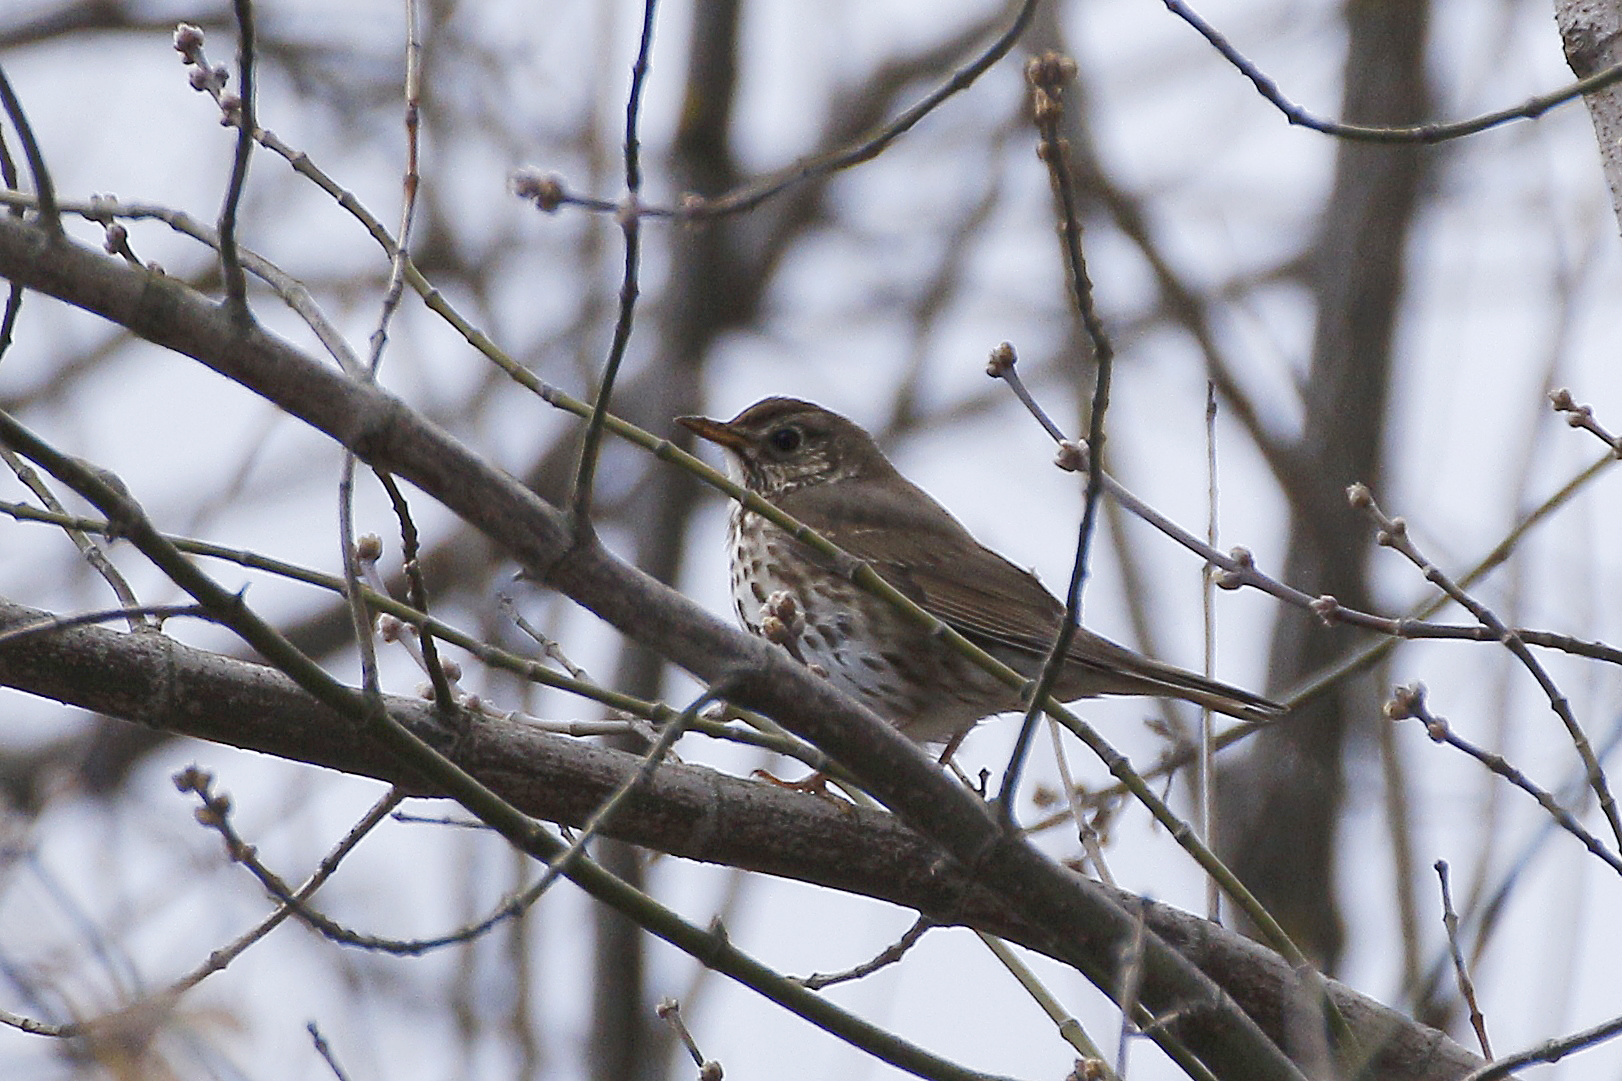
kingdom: Animalia
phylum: Chordata
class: Aves
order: Passeriformes
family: Turdidae
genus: Turdus
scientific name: Turdus philomelos
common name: Song thrush
